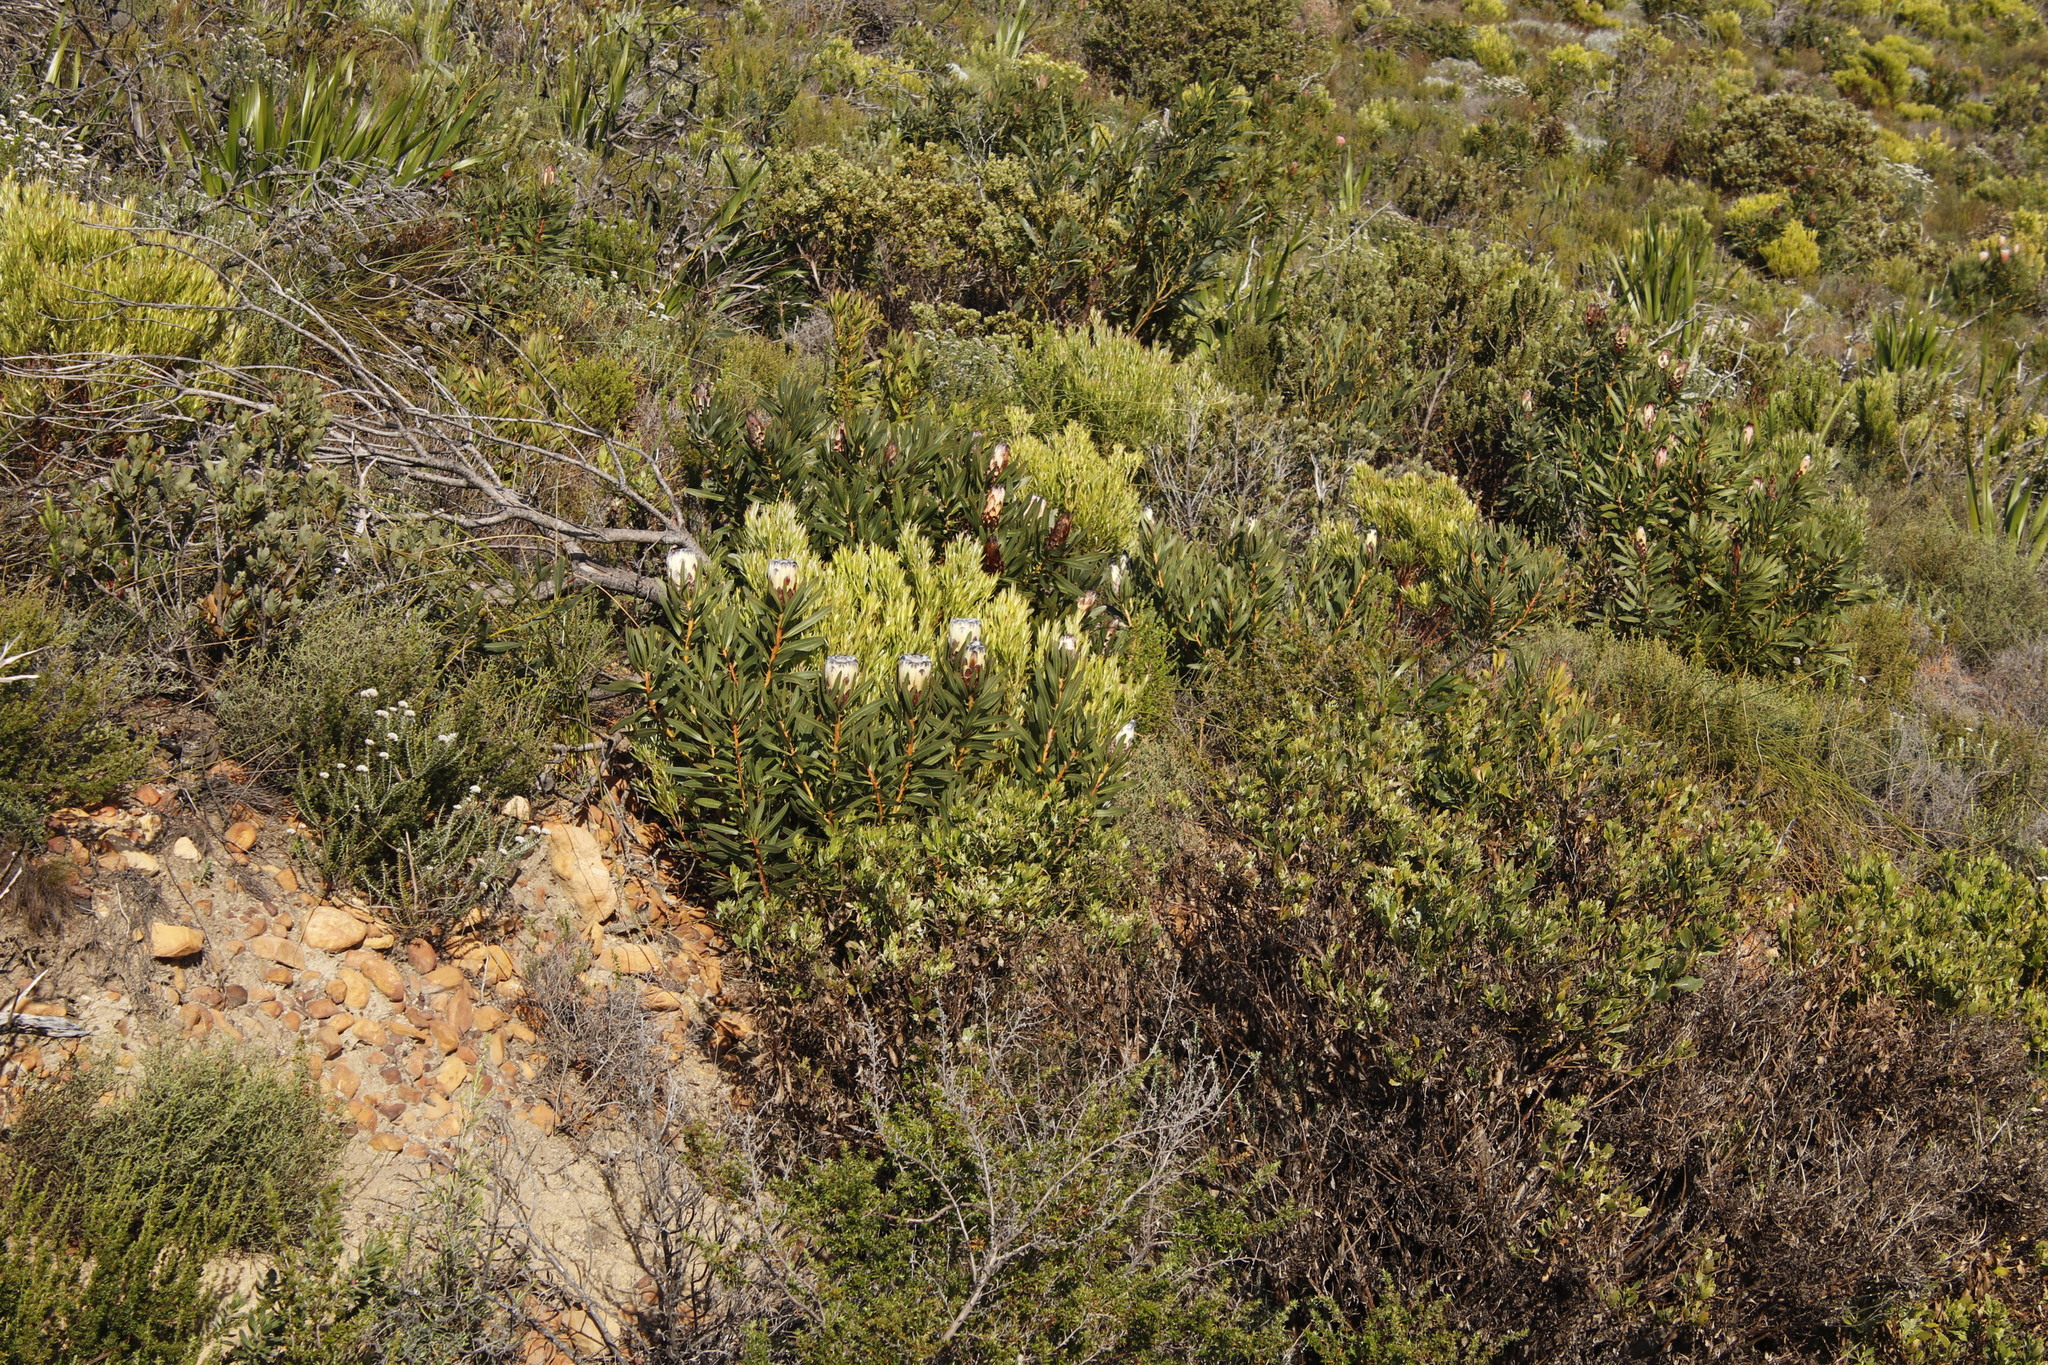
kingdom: Plantae
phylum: Tracheophyta
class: Magnoliopsida
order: Proteales
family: Proteaceae
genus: Protea
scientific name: Protea
